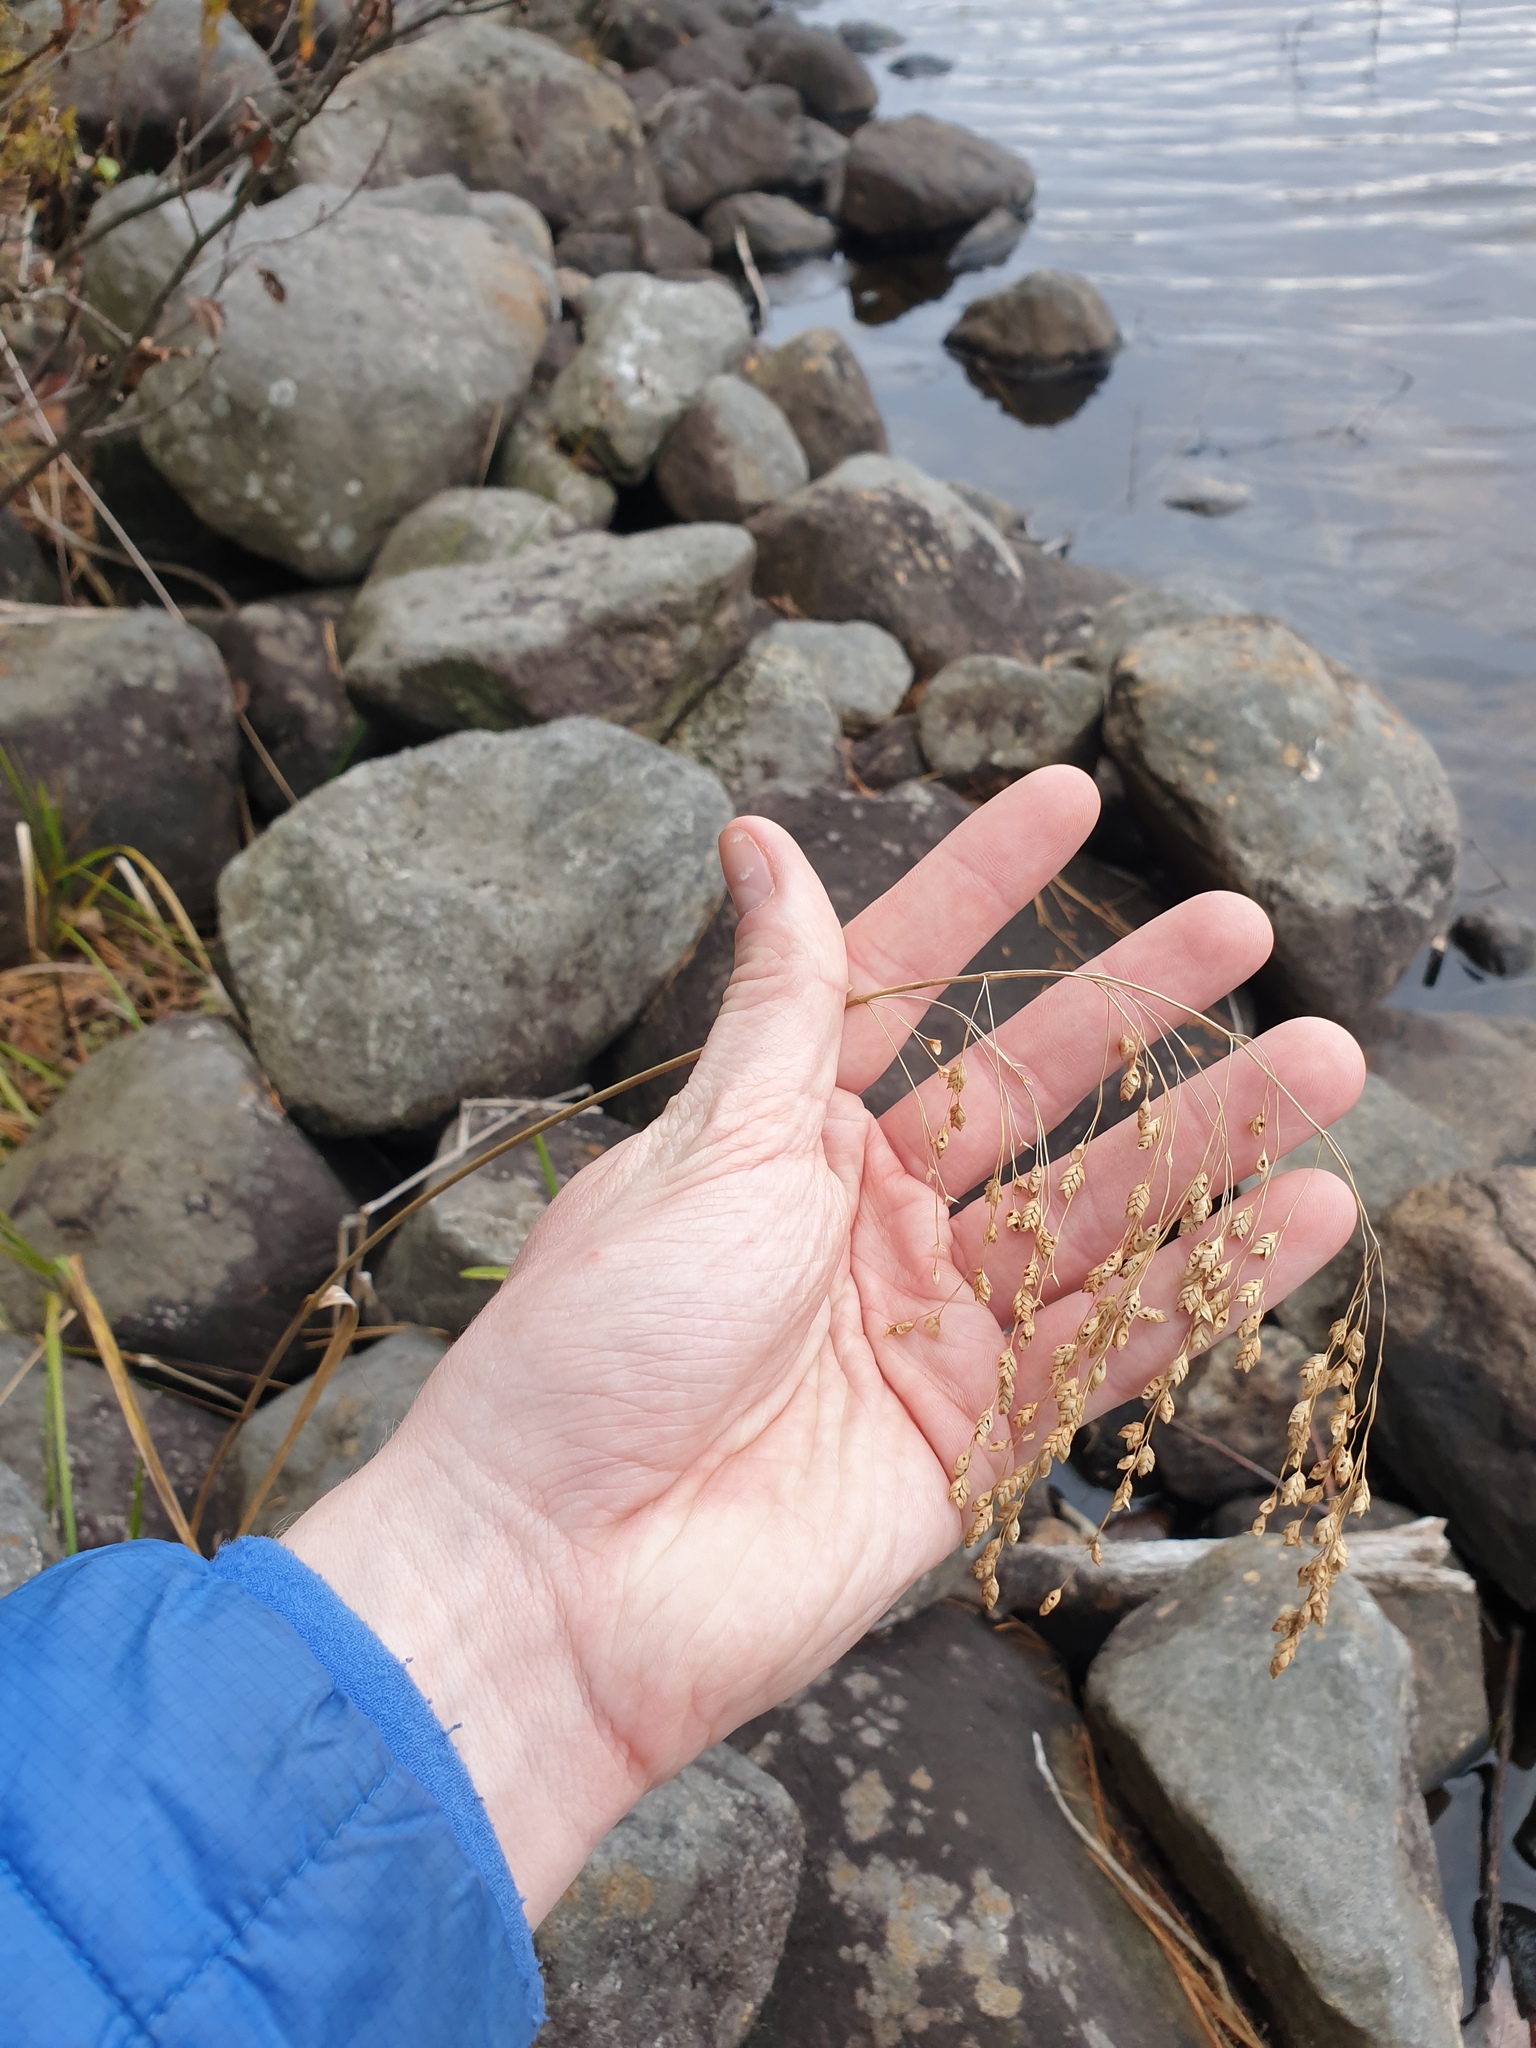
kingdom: Plantae
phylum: Tracheophyta
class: Liliopsida
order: Poales
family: Poaceae
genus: Glyceria
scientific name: Glyceria canadensis
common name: Canada mannagrass
